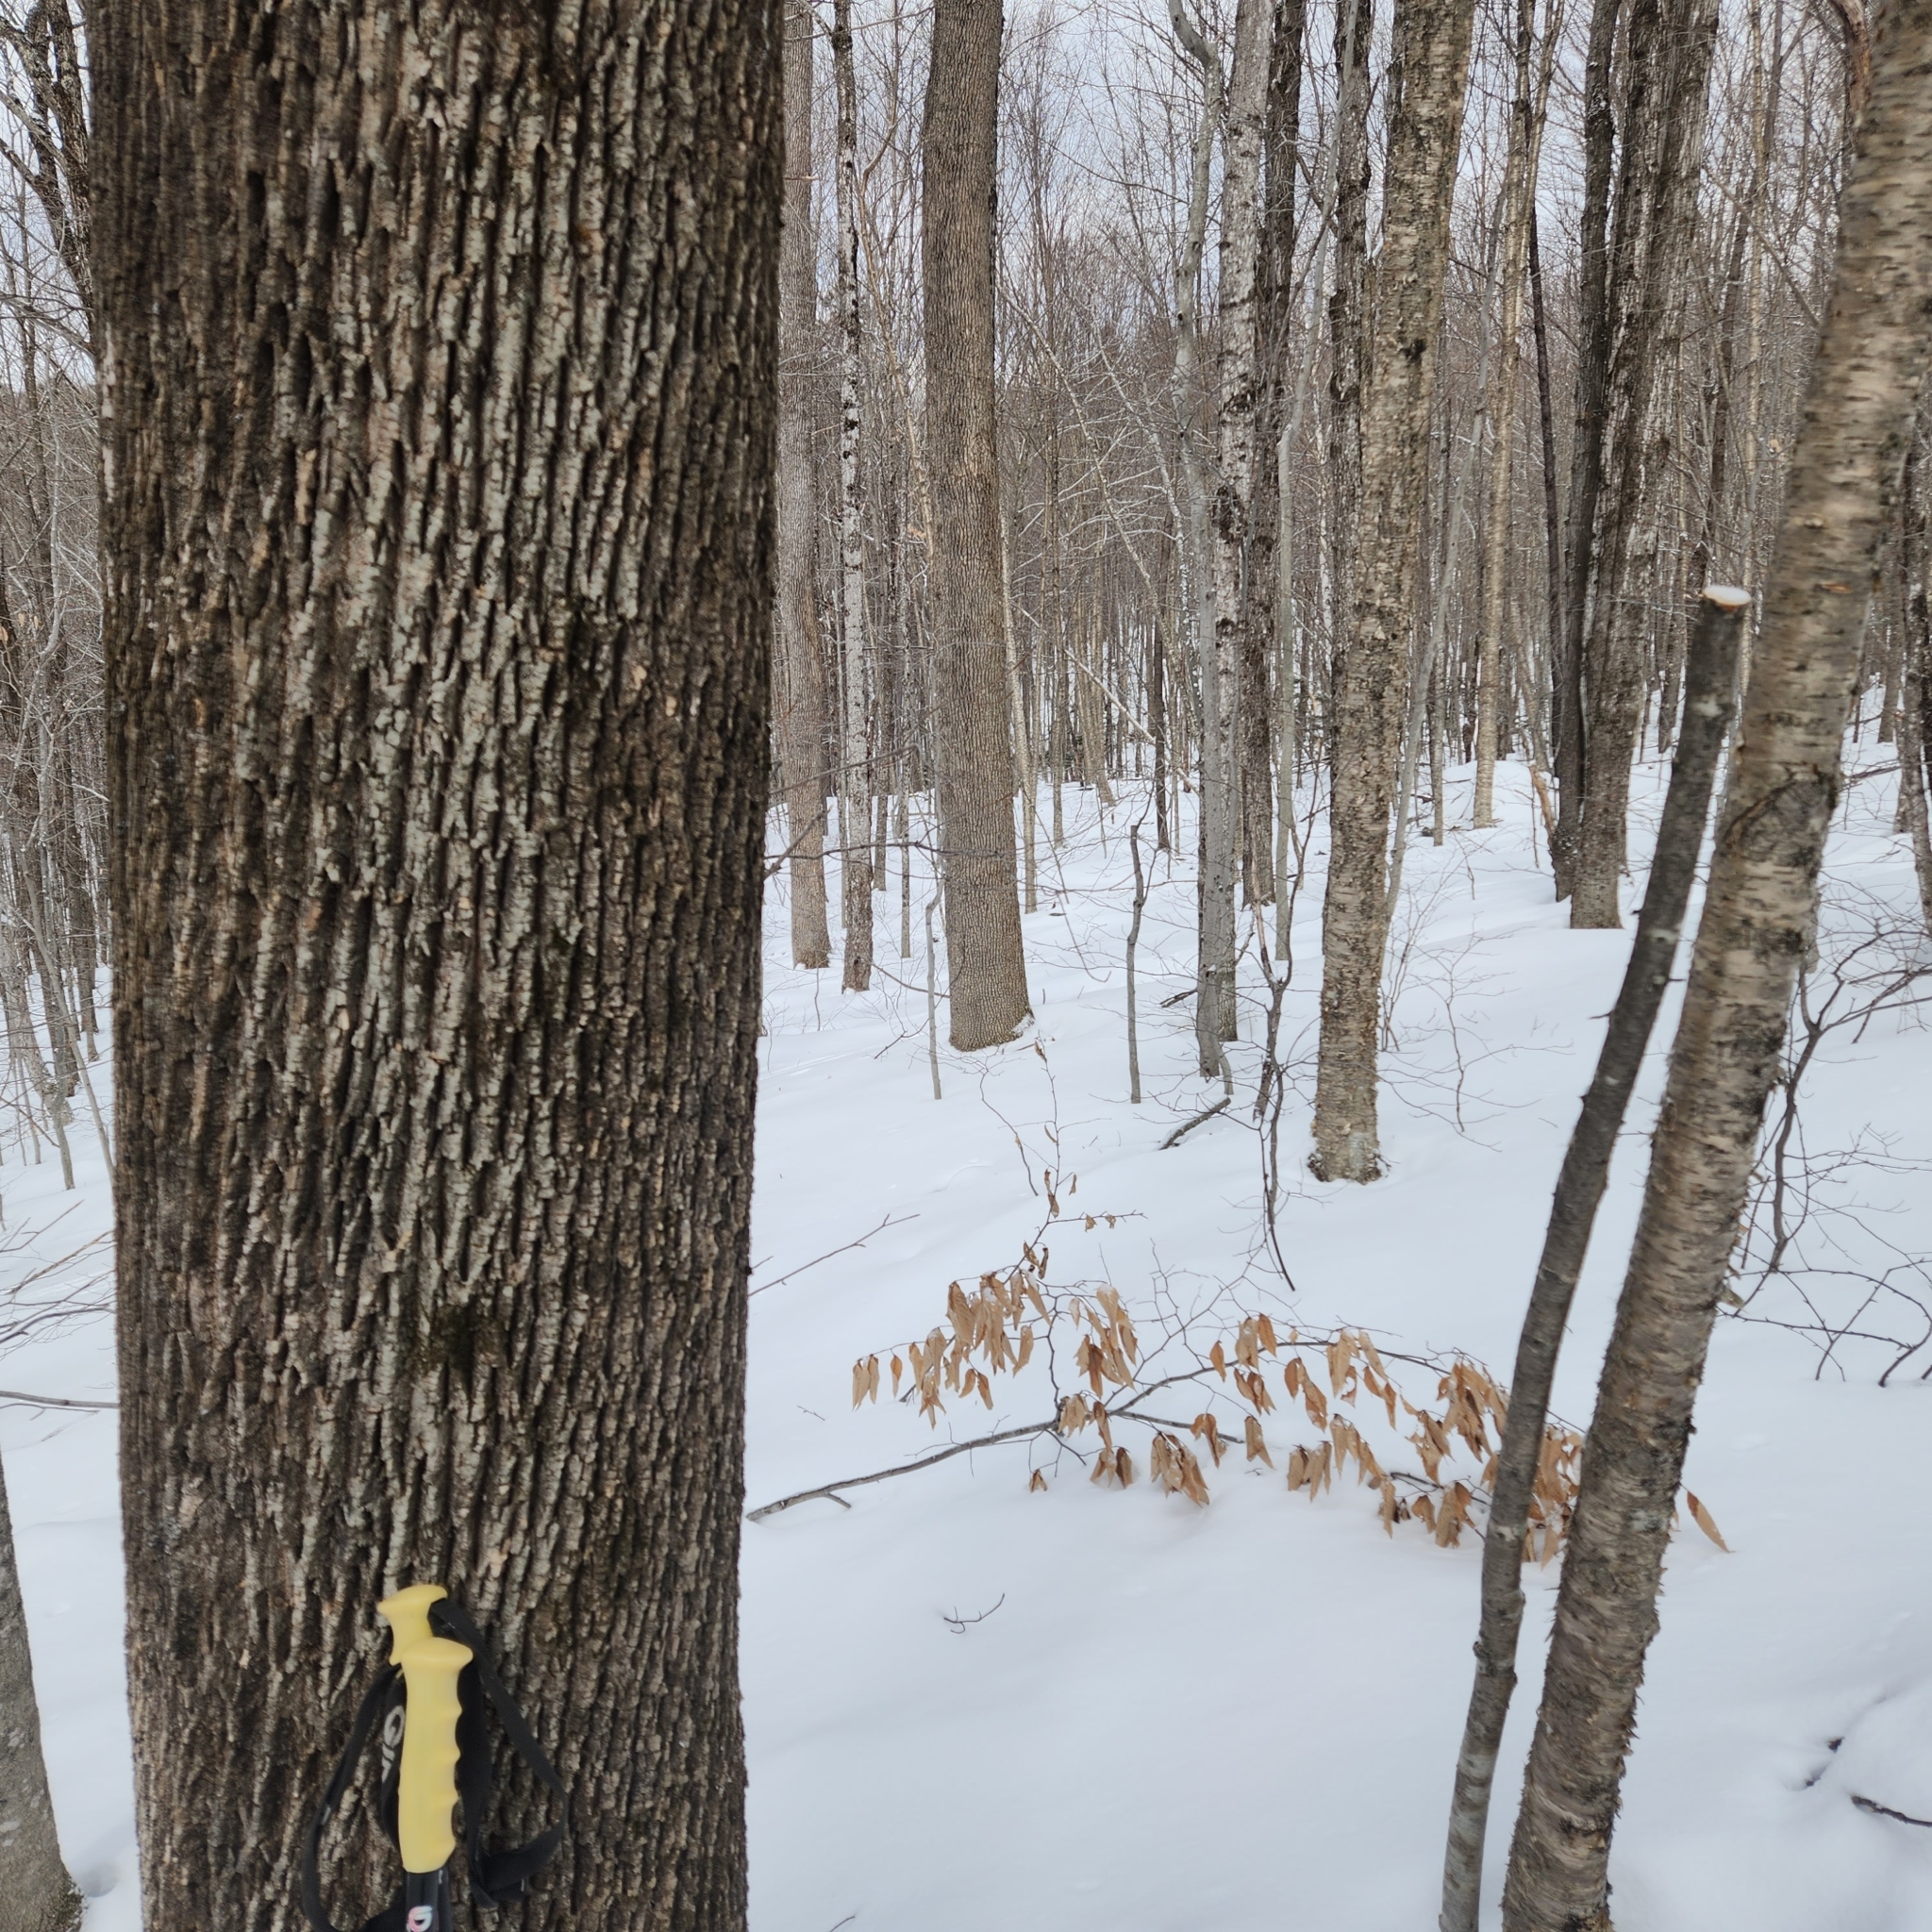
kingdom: Plantae
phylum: Tracheophyta
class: Magnoliopsida
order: Lamiales
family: Oleaceae
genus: Fraxinus
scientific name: Fraxinus americana
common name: White ash
